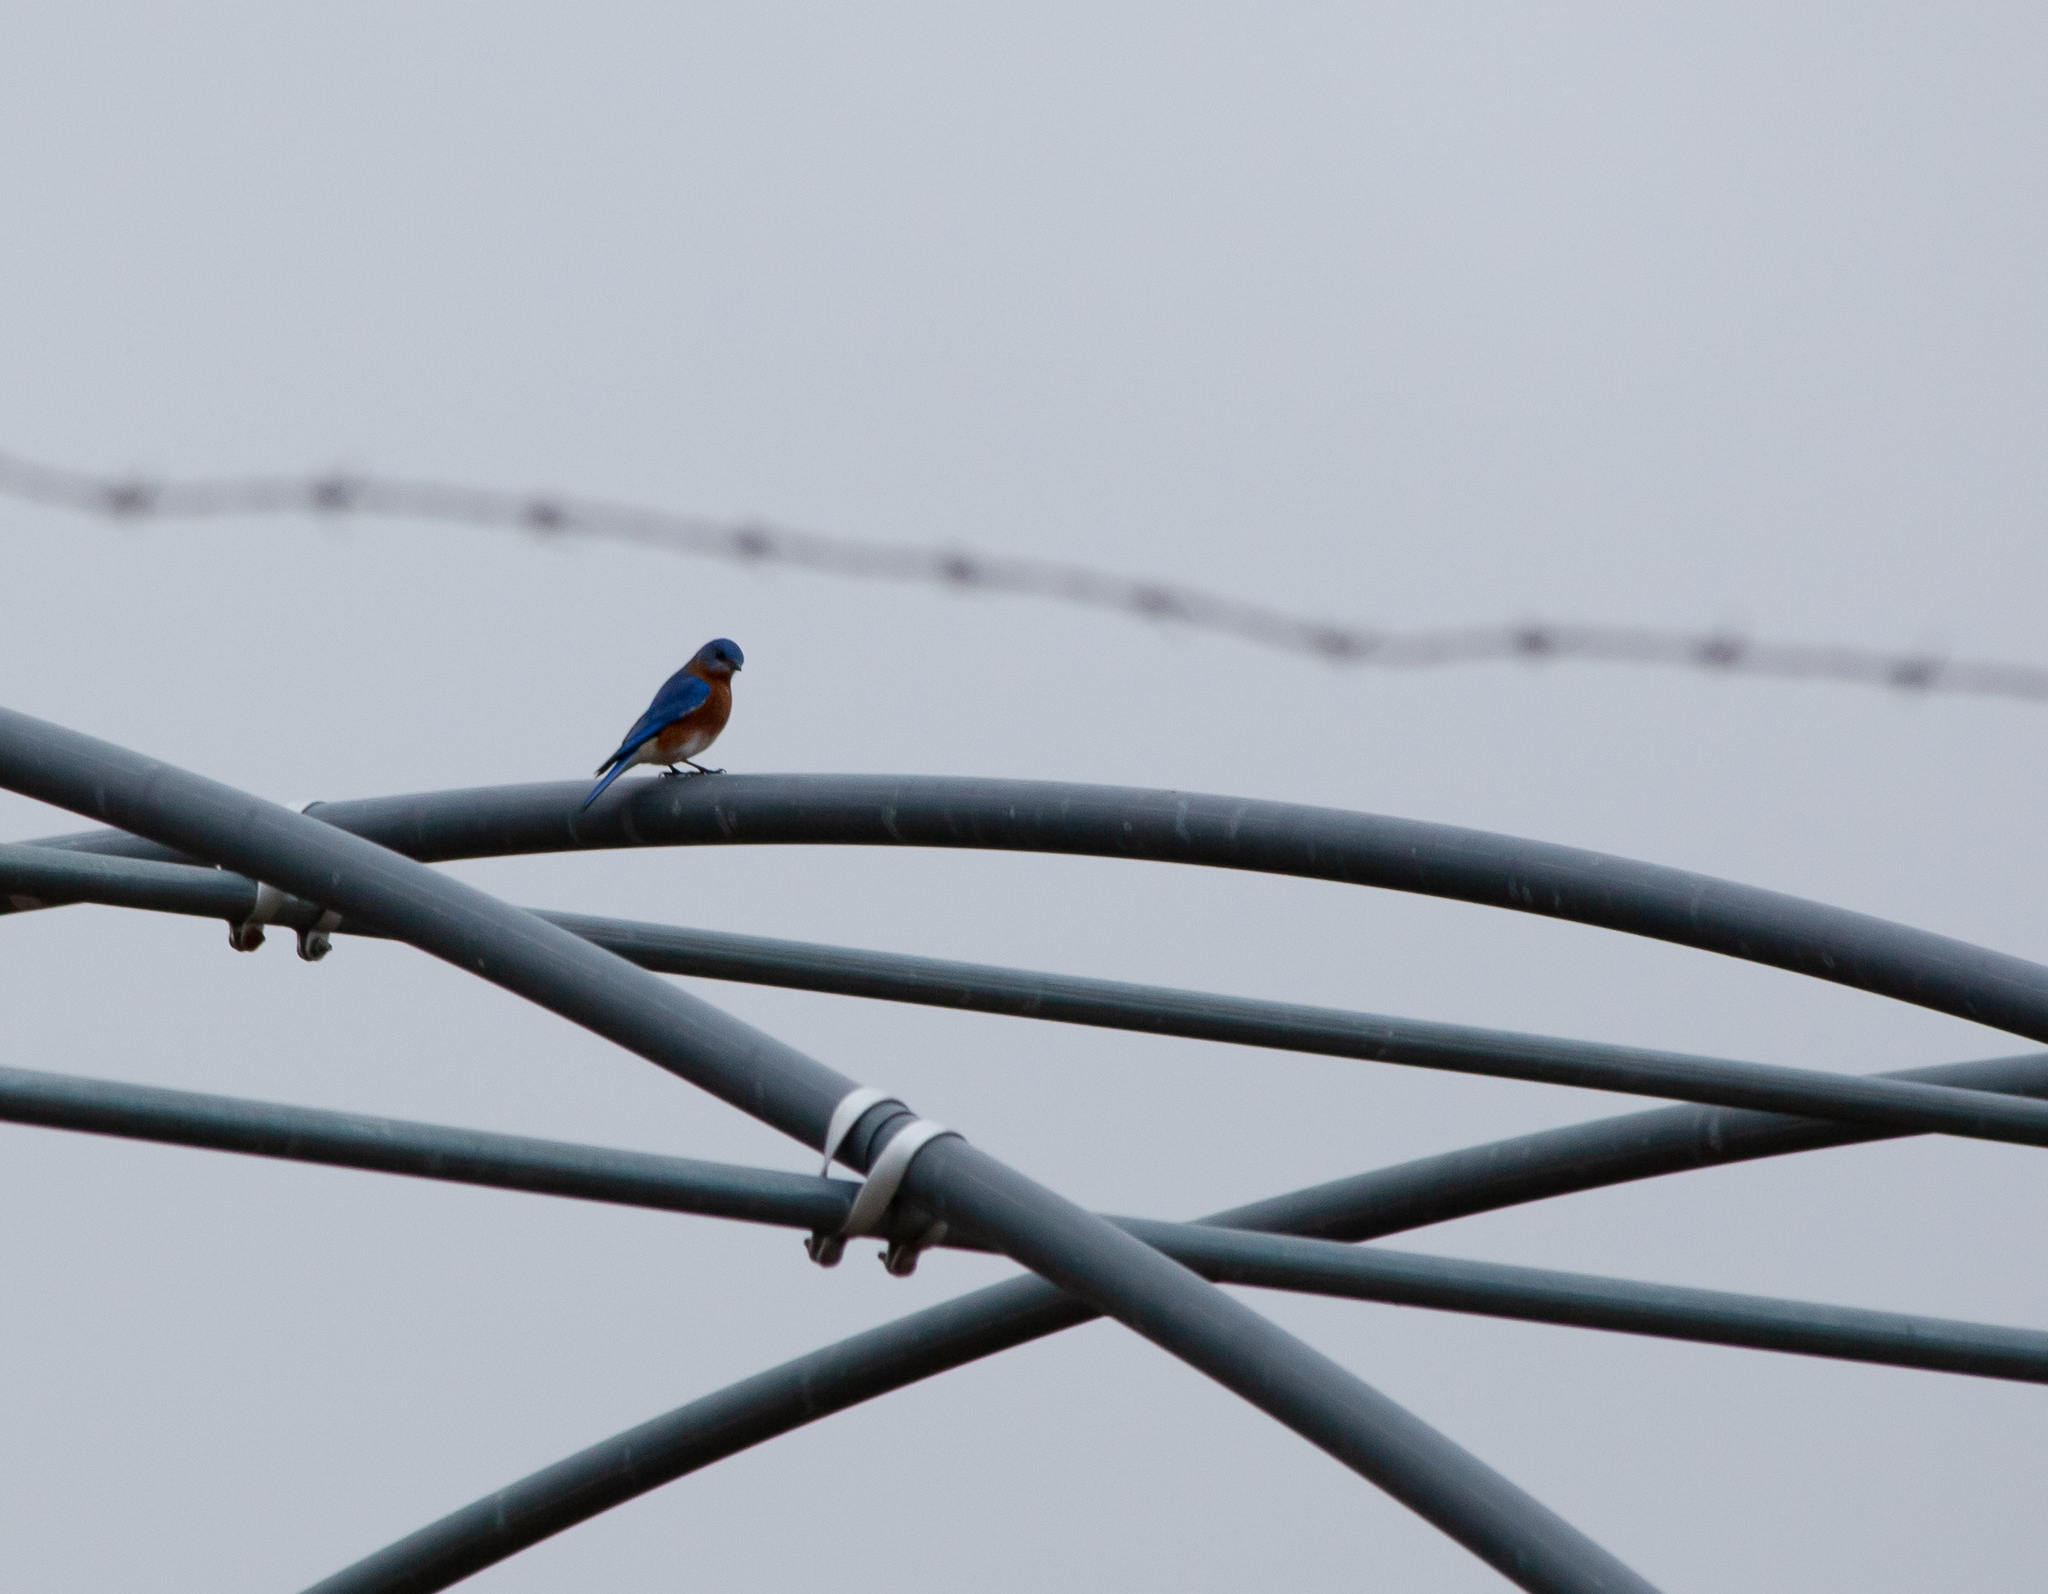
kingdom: Animalia
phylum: Chordata
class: Aves
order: Passeriformes
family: Turdidae
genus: Sialia
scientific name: Sialia sialis
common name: Eastern bluebird
